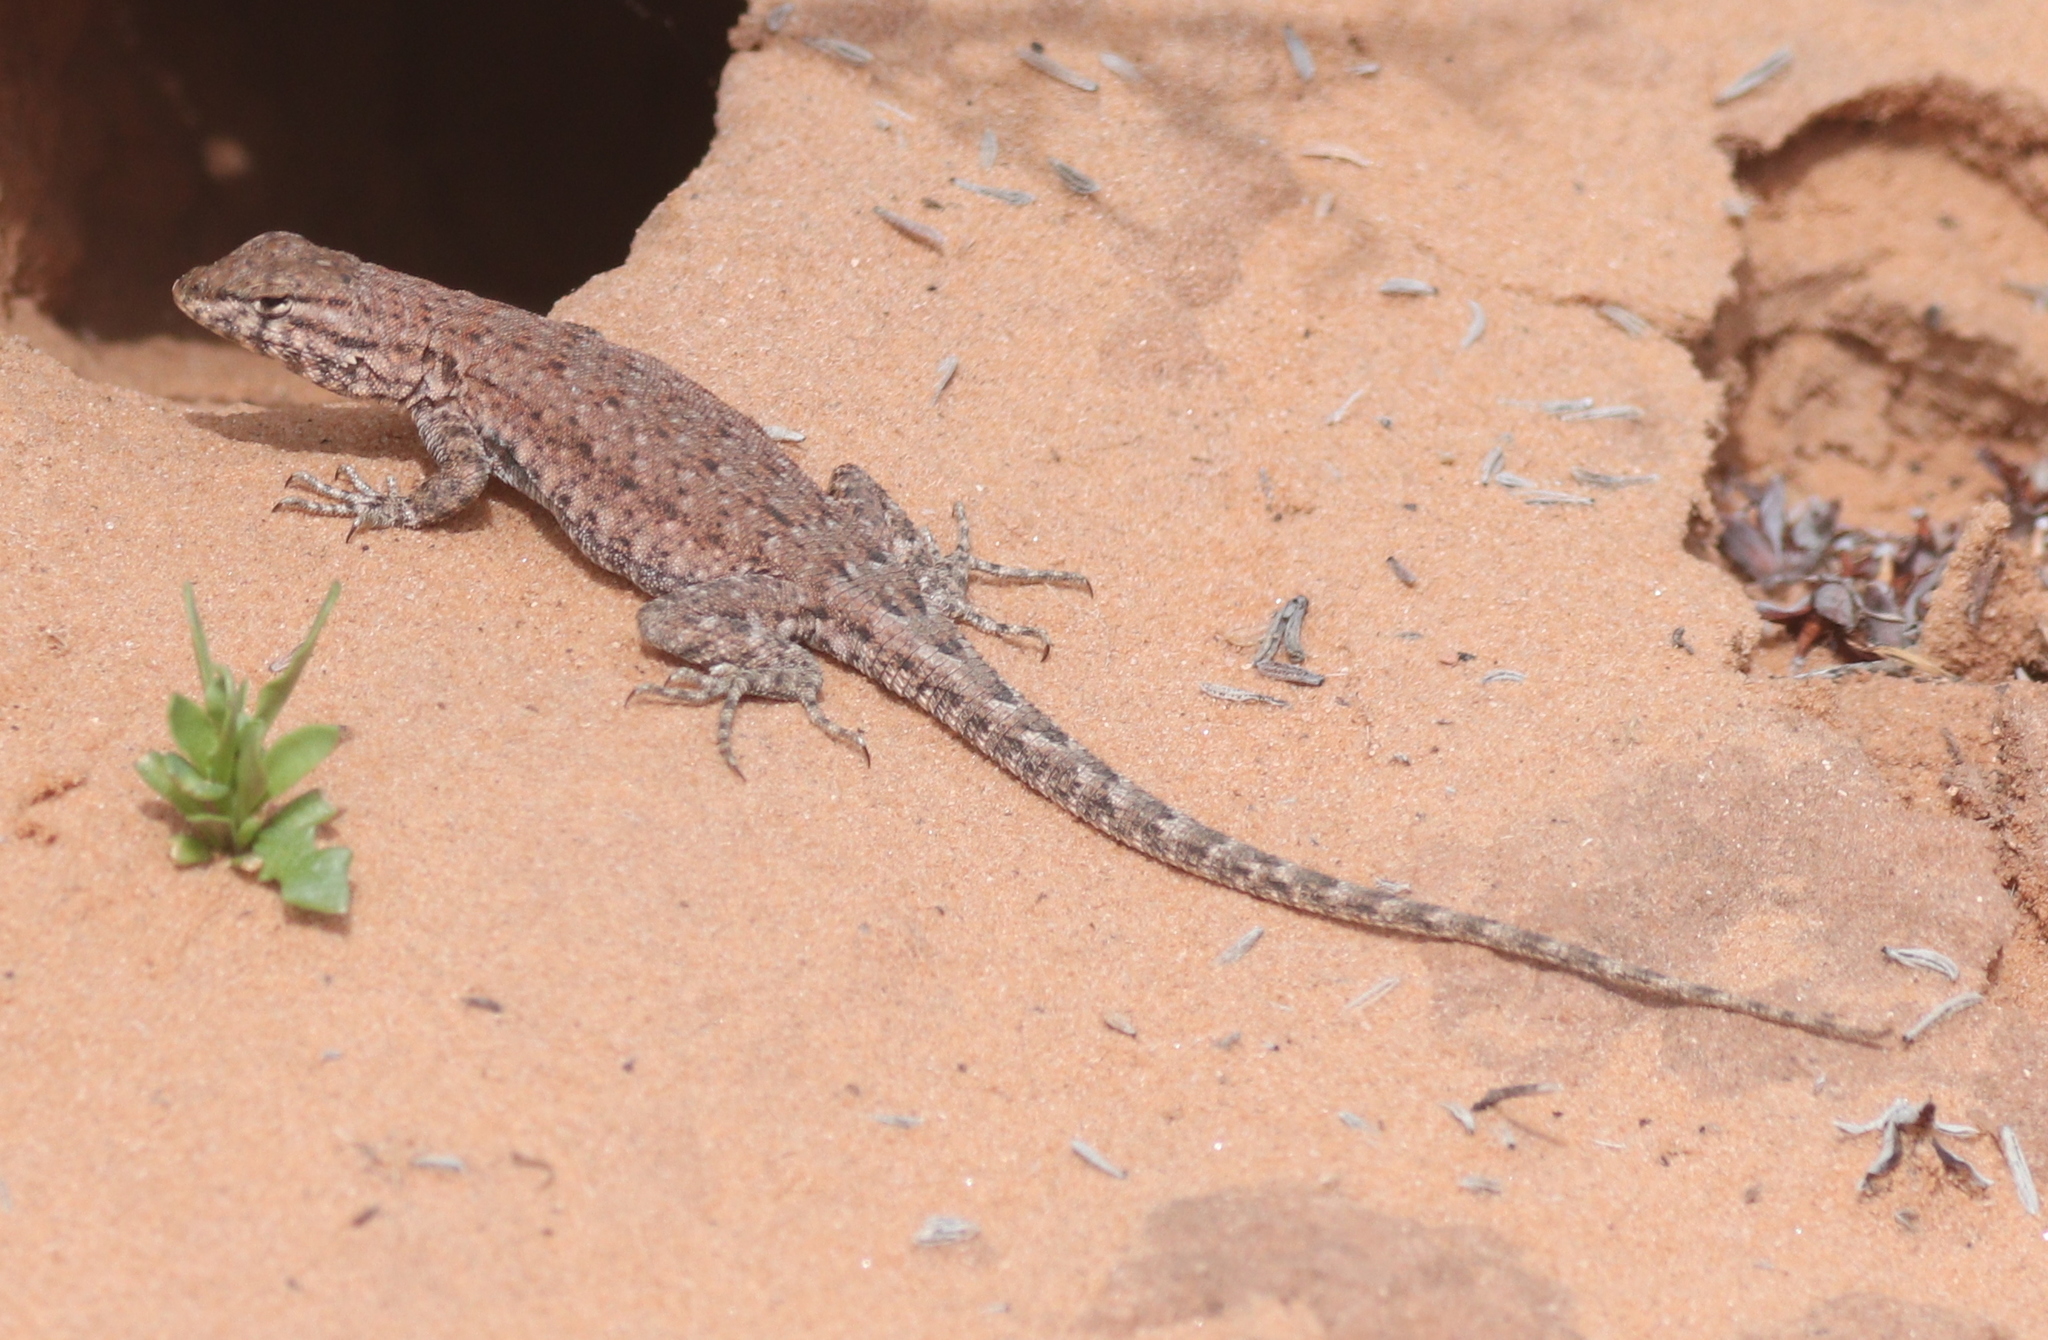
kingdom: Animalia
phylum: Chordata
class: Squamata
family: Phrynosomatidae
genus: Uta
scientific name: Uta stansburiana
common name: Side-blotched lizard
